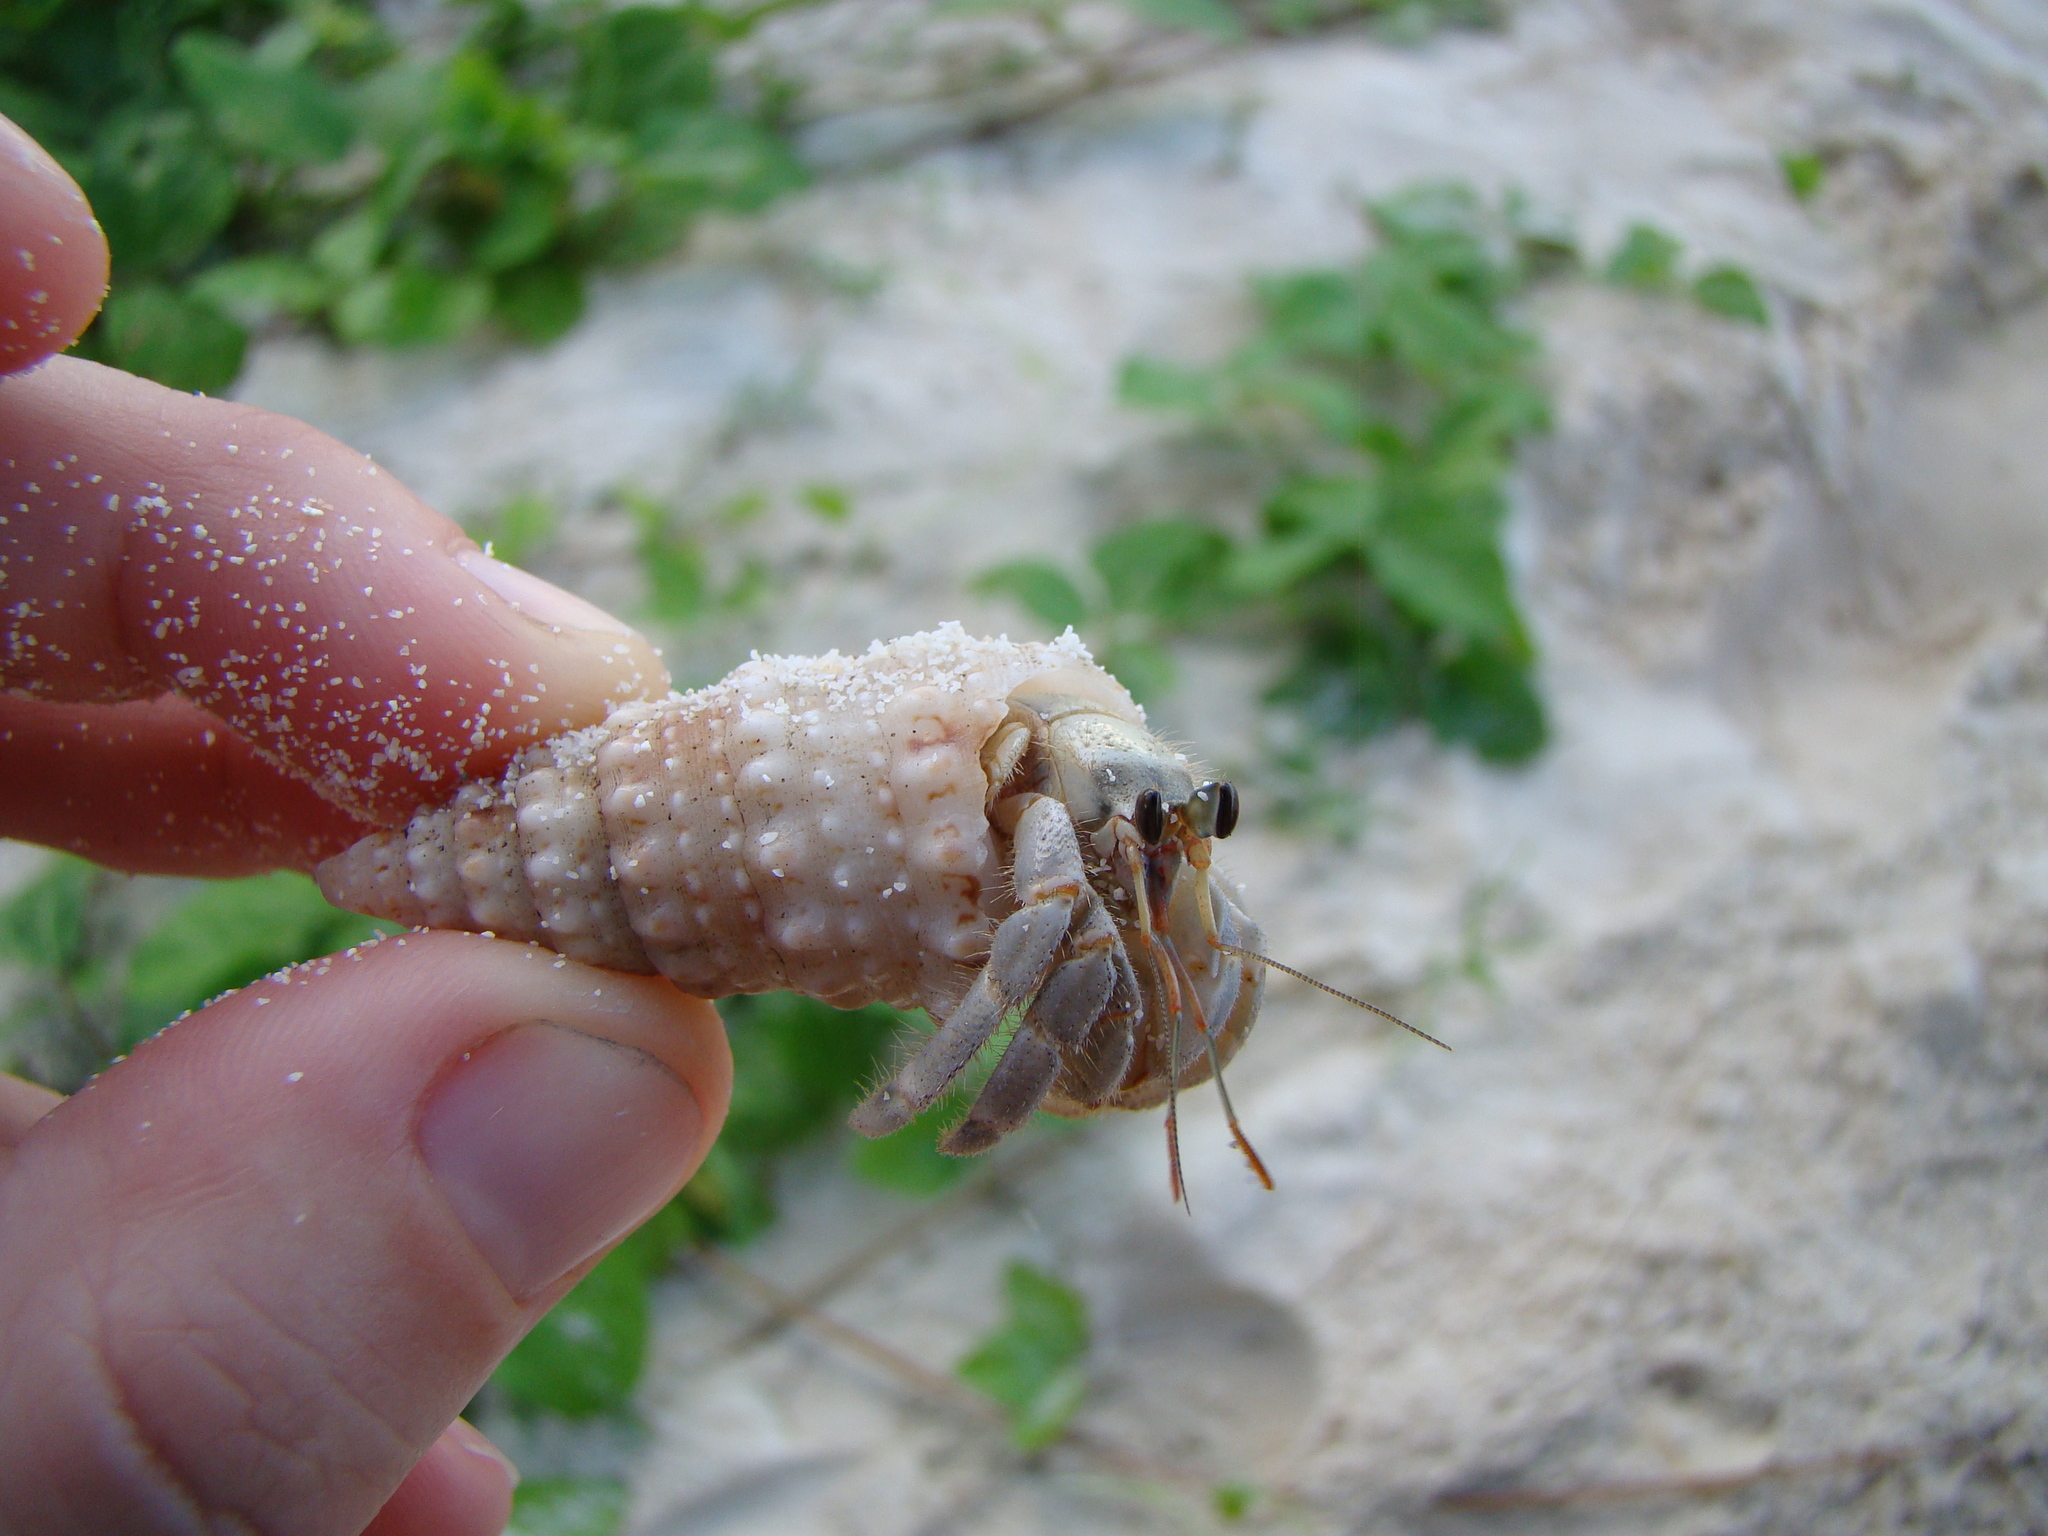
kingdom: Animalia
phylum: Mollusca
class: Gastropoda
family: Cerithiidae
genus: Rhinoclavis
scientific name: Rhinoclavis gemmata
